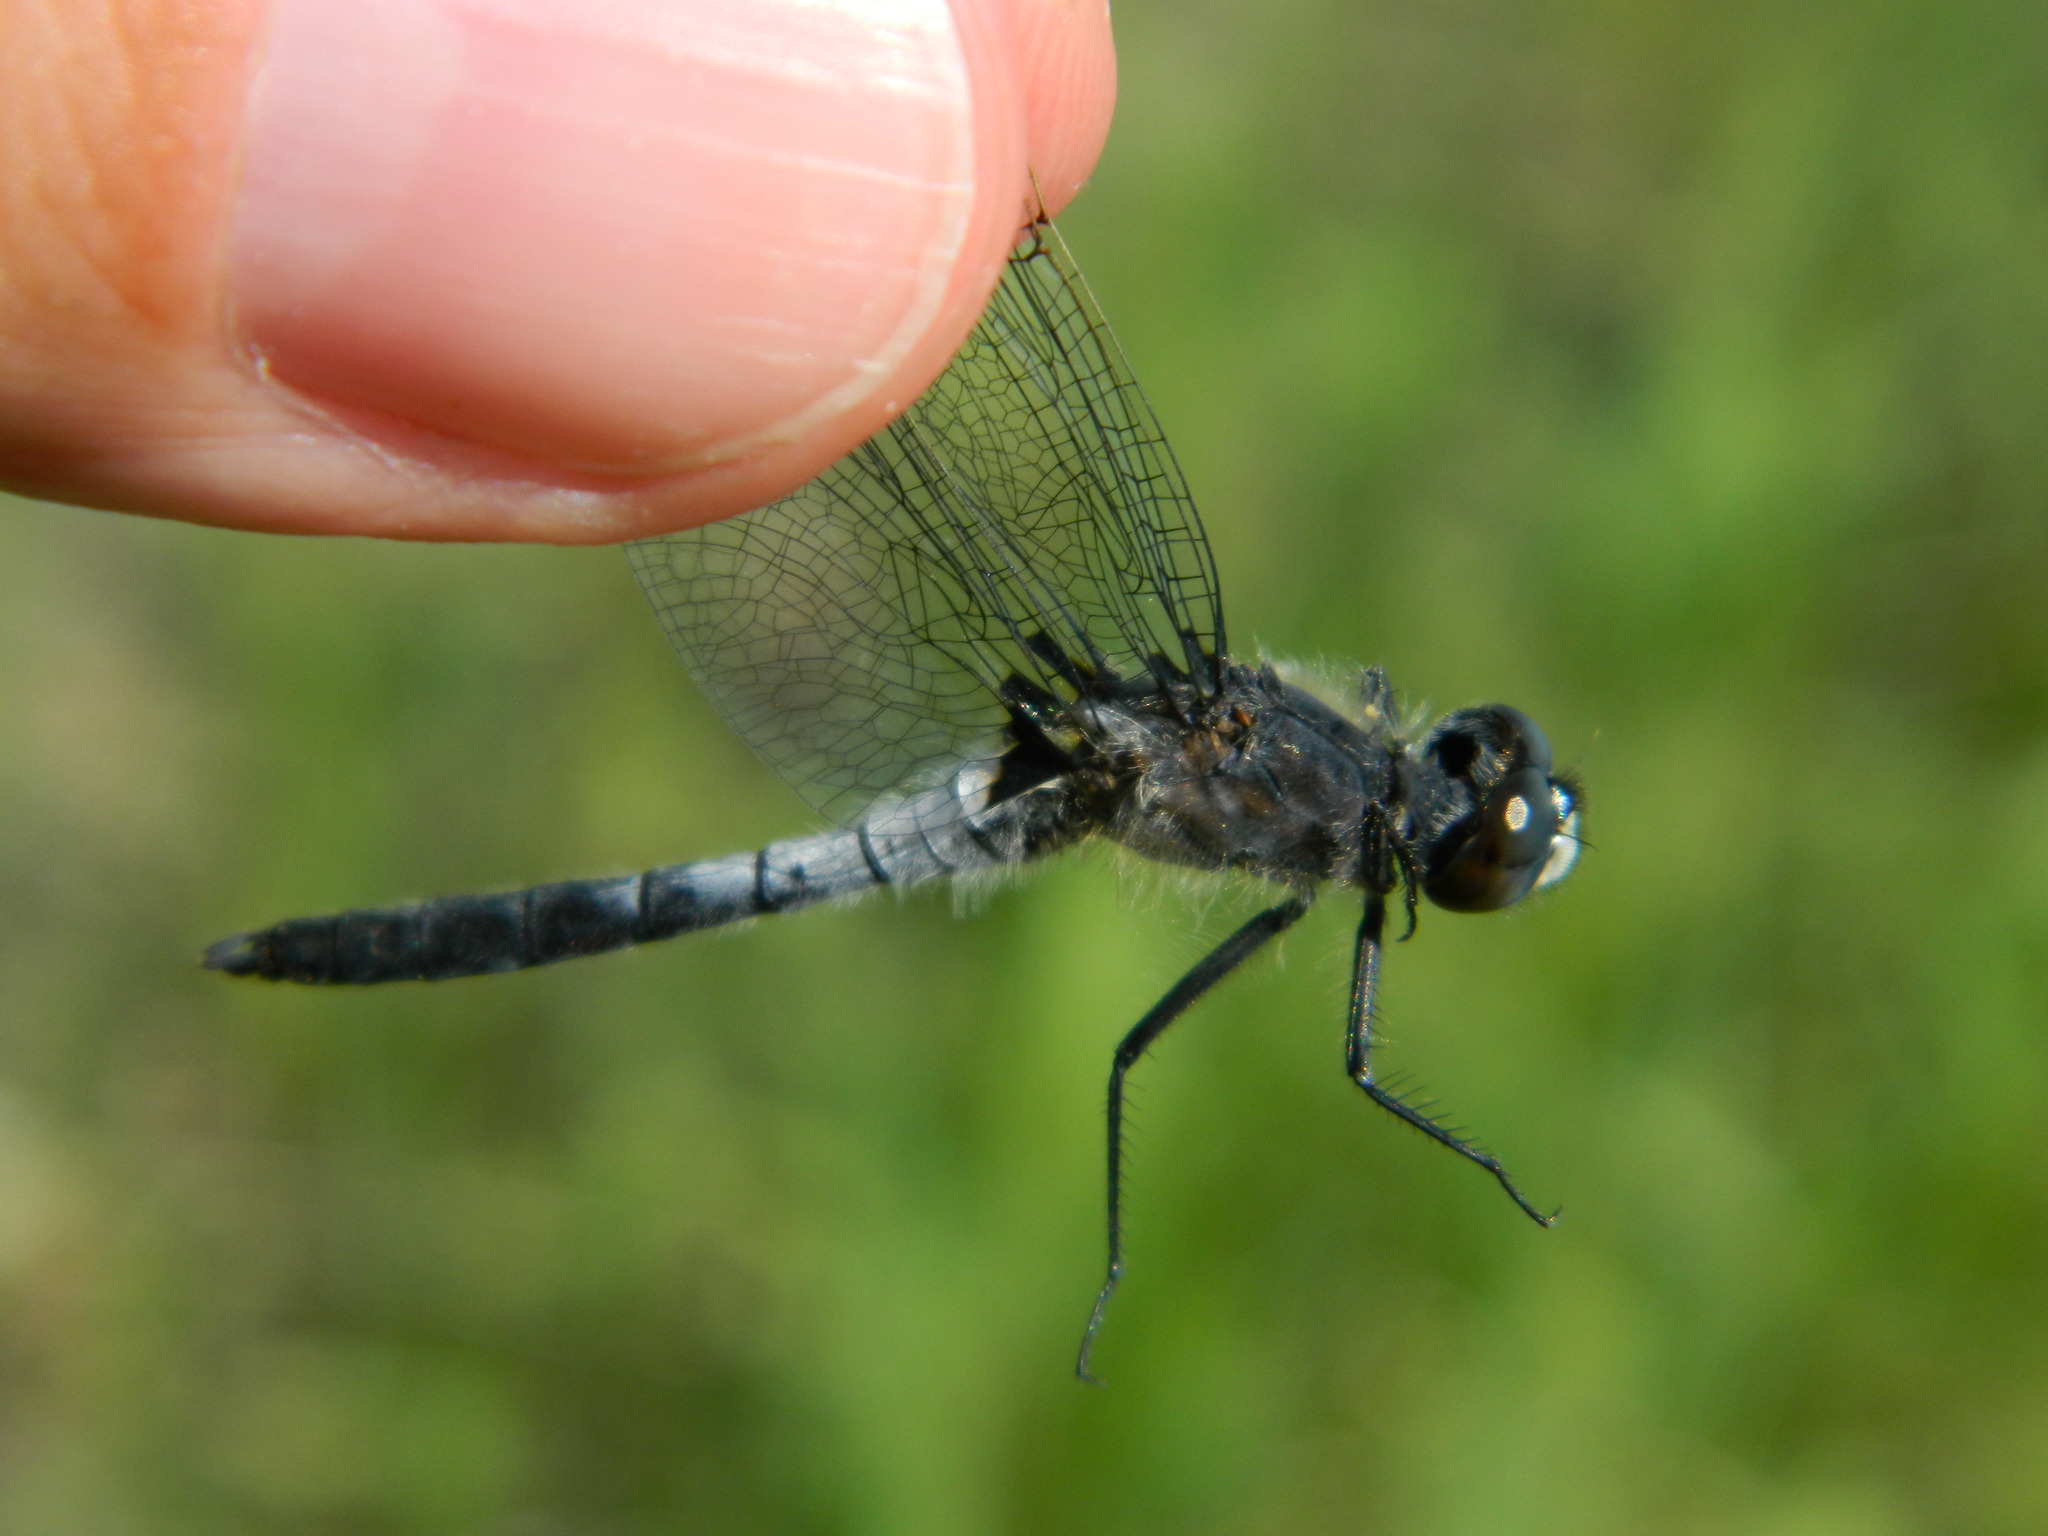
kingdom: Animalia
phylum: Arthropoda
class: Insecta
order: Odonata
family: Libellulidae
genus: Leucorrhinia
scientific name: Leucorrhinia frigida
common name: Frosted whiteface
